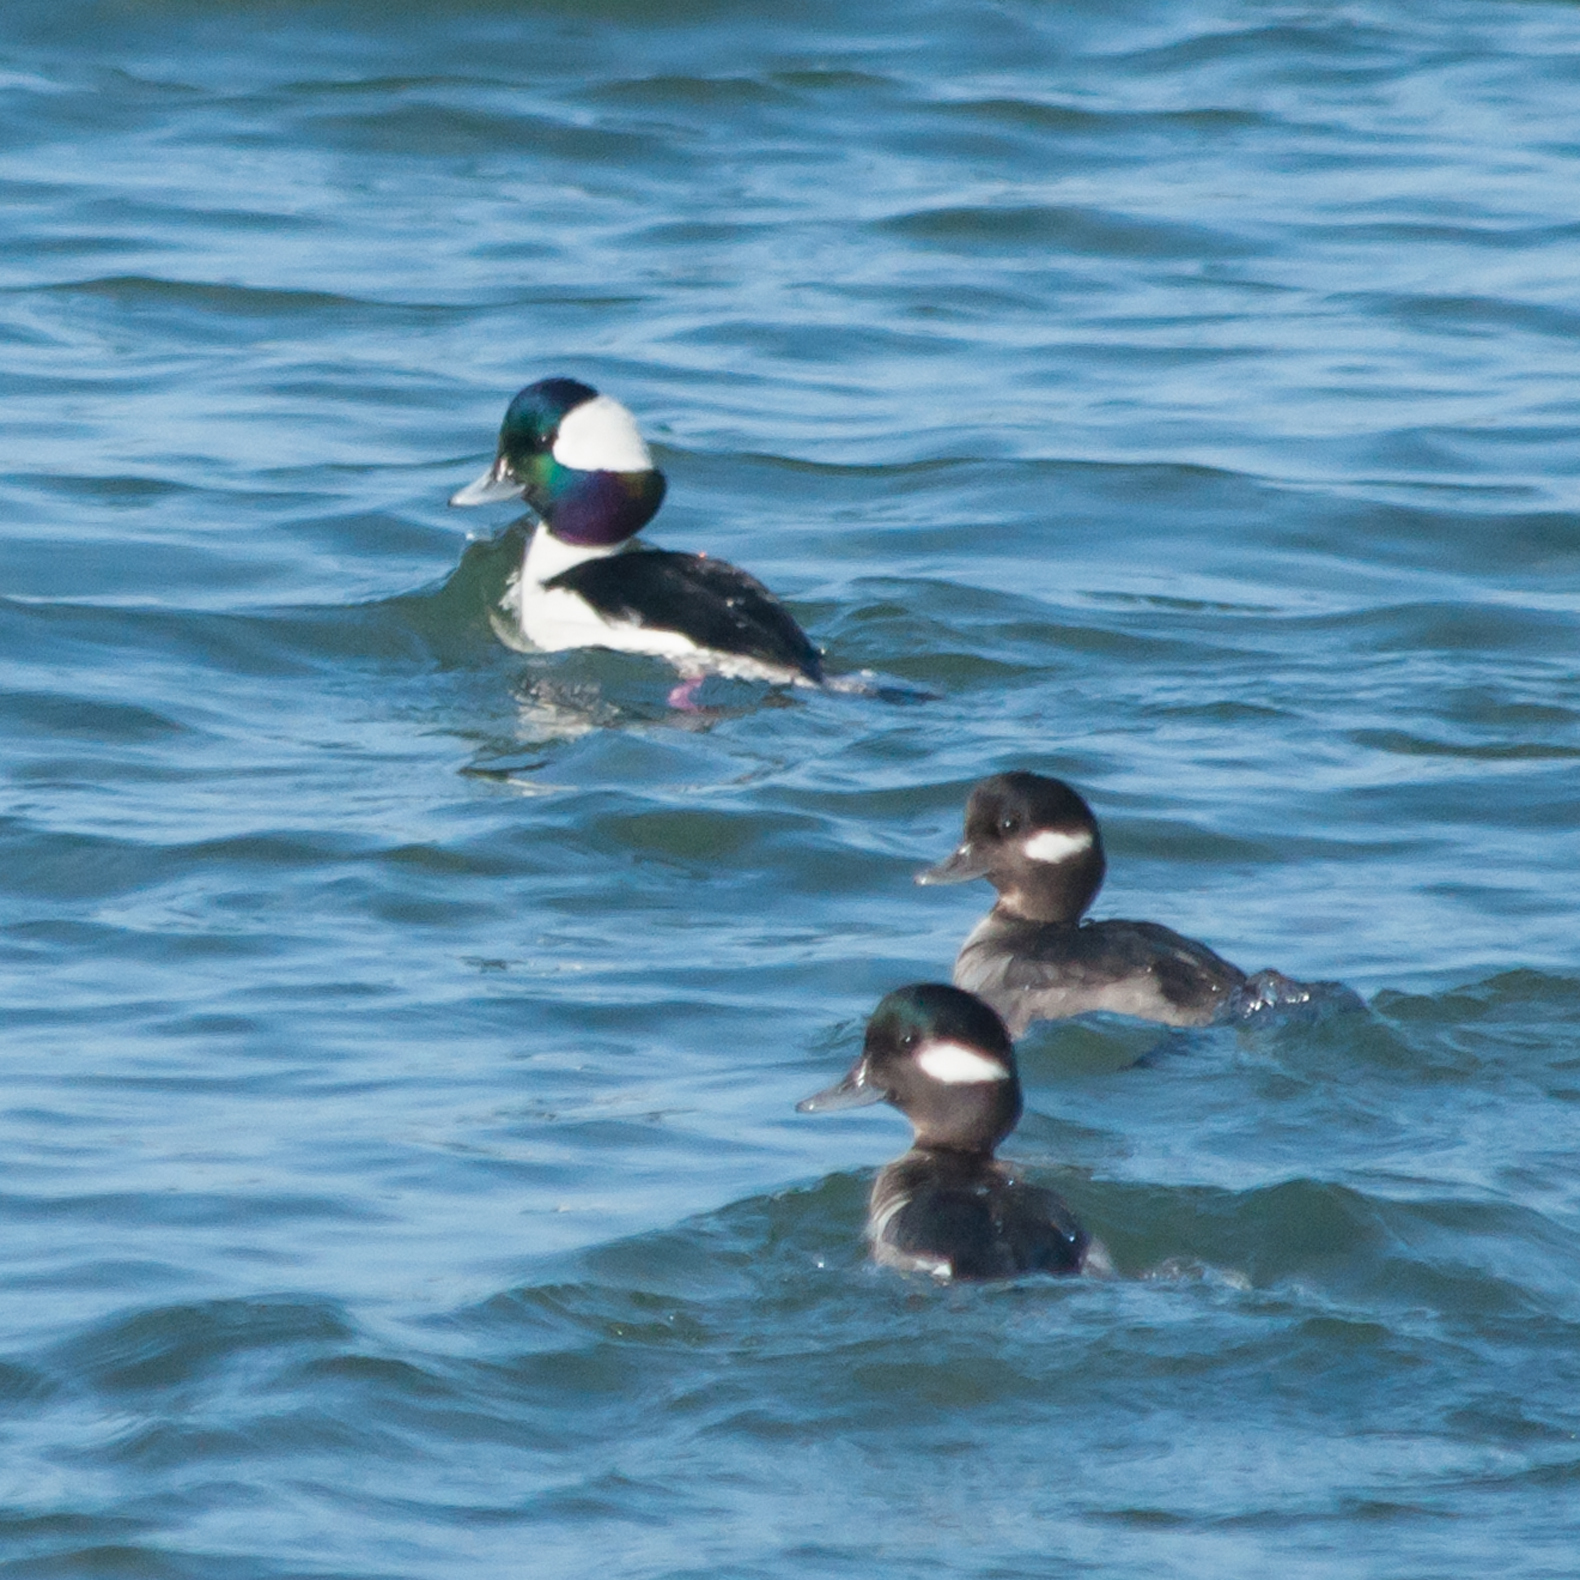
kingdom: Animalia
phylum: Chordata
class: Aves
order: Anseriformes
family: Anatidae
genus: Bucephala
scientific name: Bucephala albeola
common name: Bufflehead
